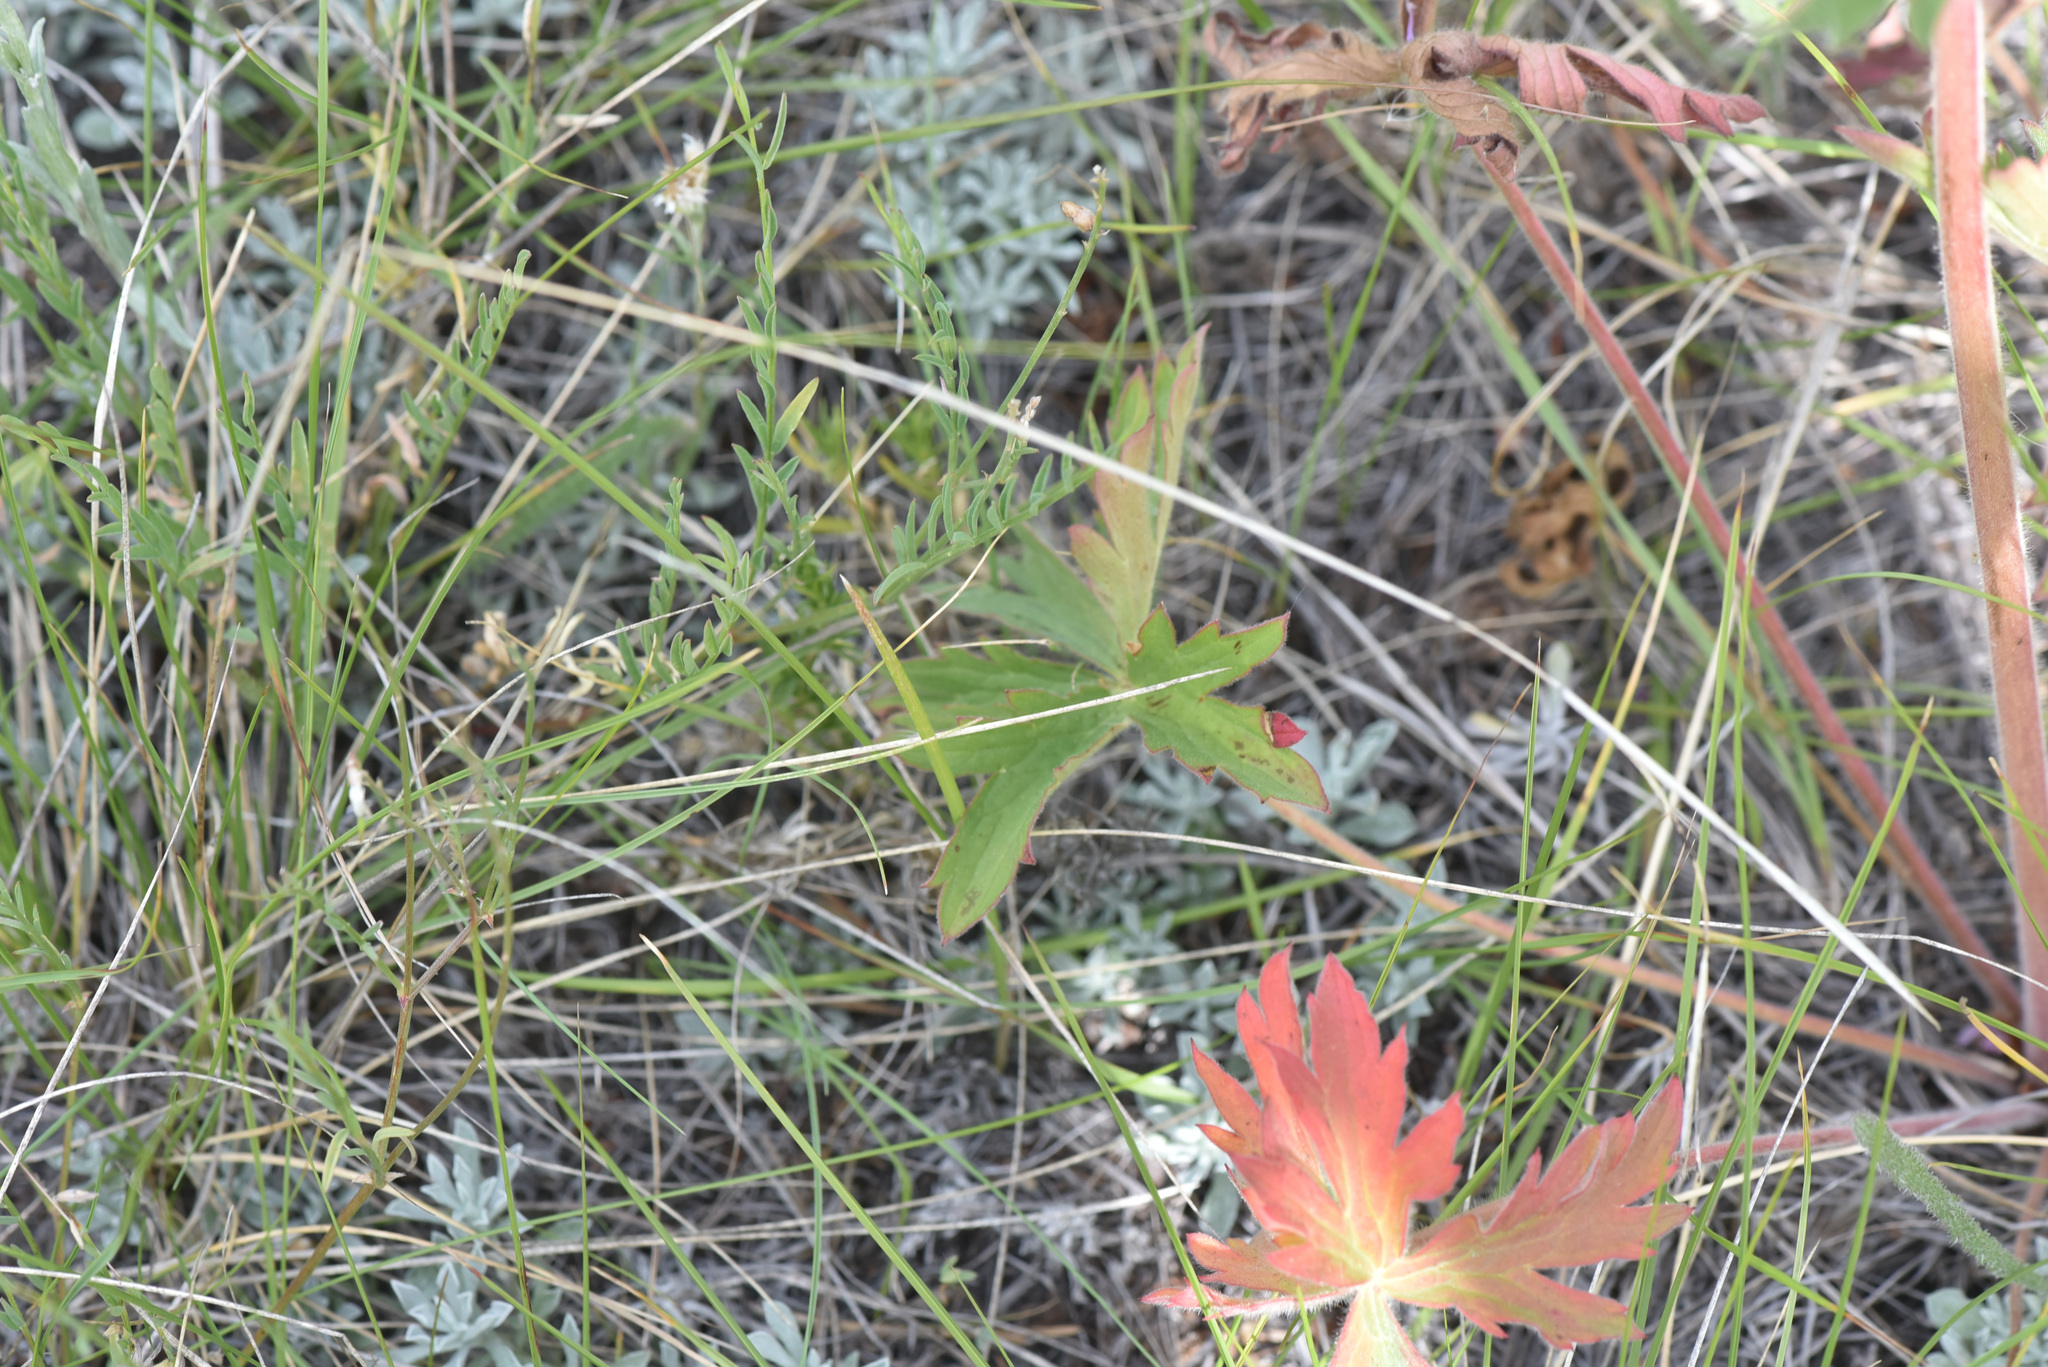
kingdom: Plantae
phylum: Tracheophyta
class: Magnoliopsida
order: Geraniales
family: Geraniaceae
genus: Geranium
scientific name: Geranium viscosissimum
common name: Purple geranium
